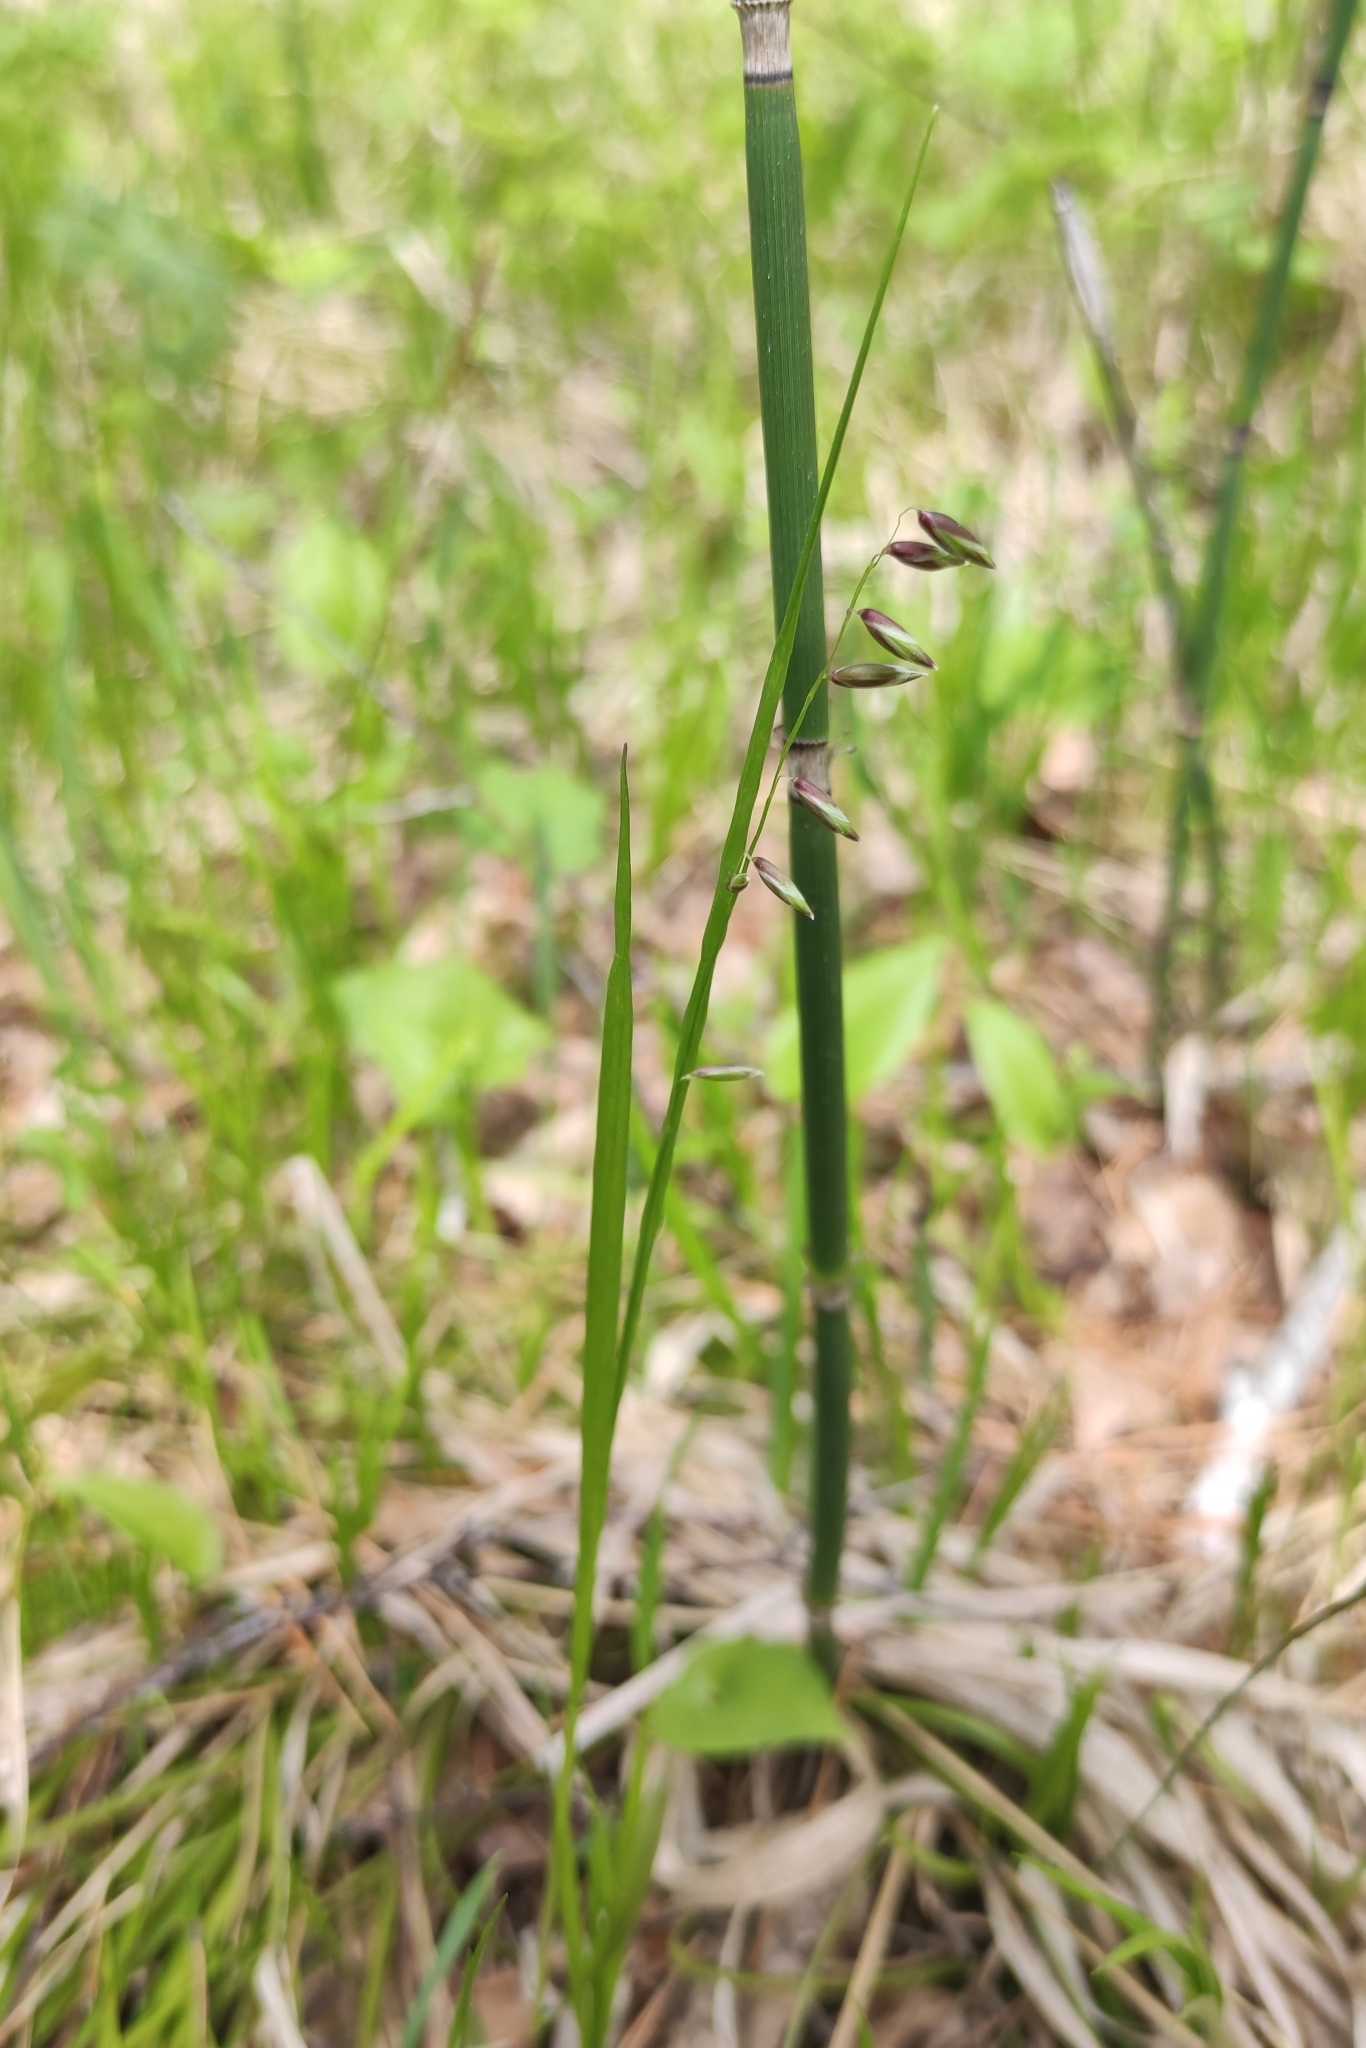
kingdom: Plantae
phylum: Tracheophyta
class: Liliopsida
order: Poales
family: Poaceae
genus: Melica
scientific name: Melica nutans
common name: Mountain melick
